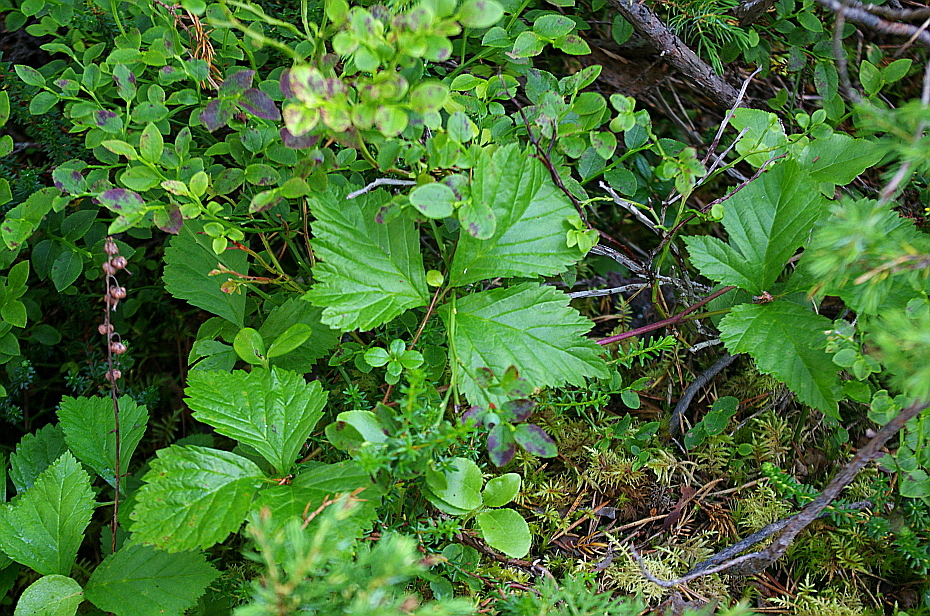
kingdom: Plantae
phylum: Tracheophyta
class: Magnoliopsida
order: Rosales
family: Rosaceae
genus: Rubus
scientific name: Rubus saxatilis
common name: Stone bramble
